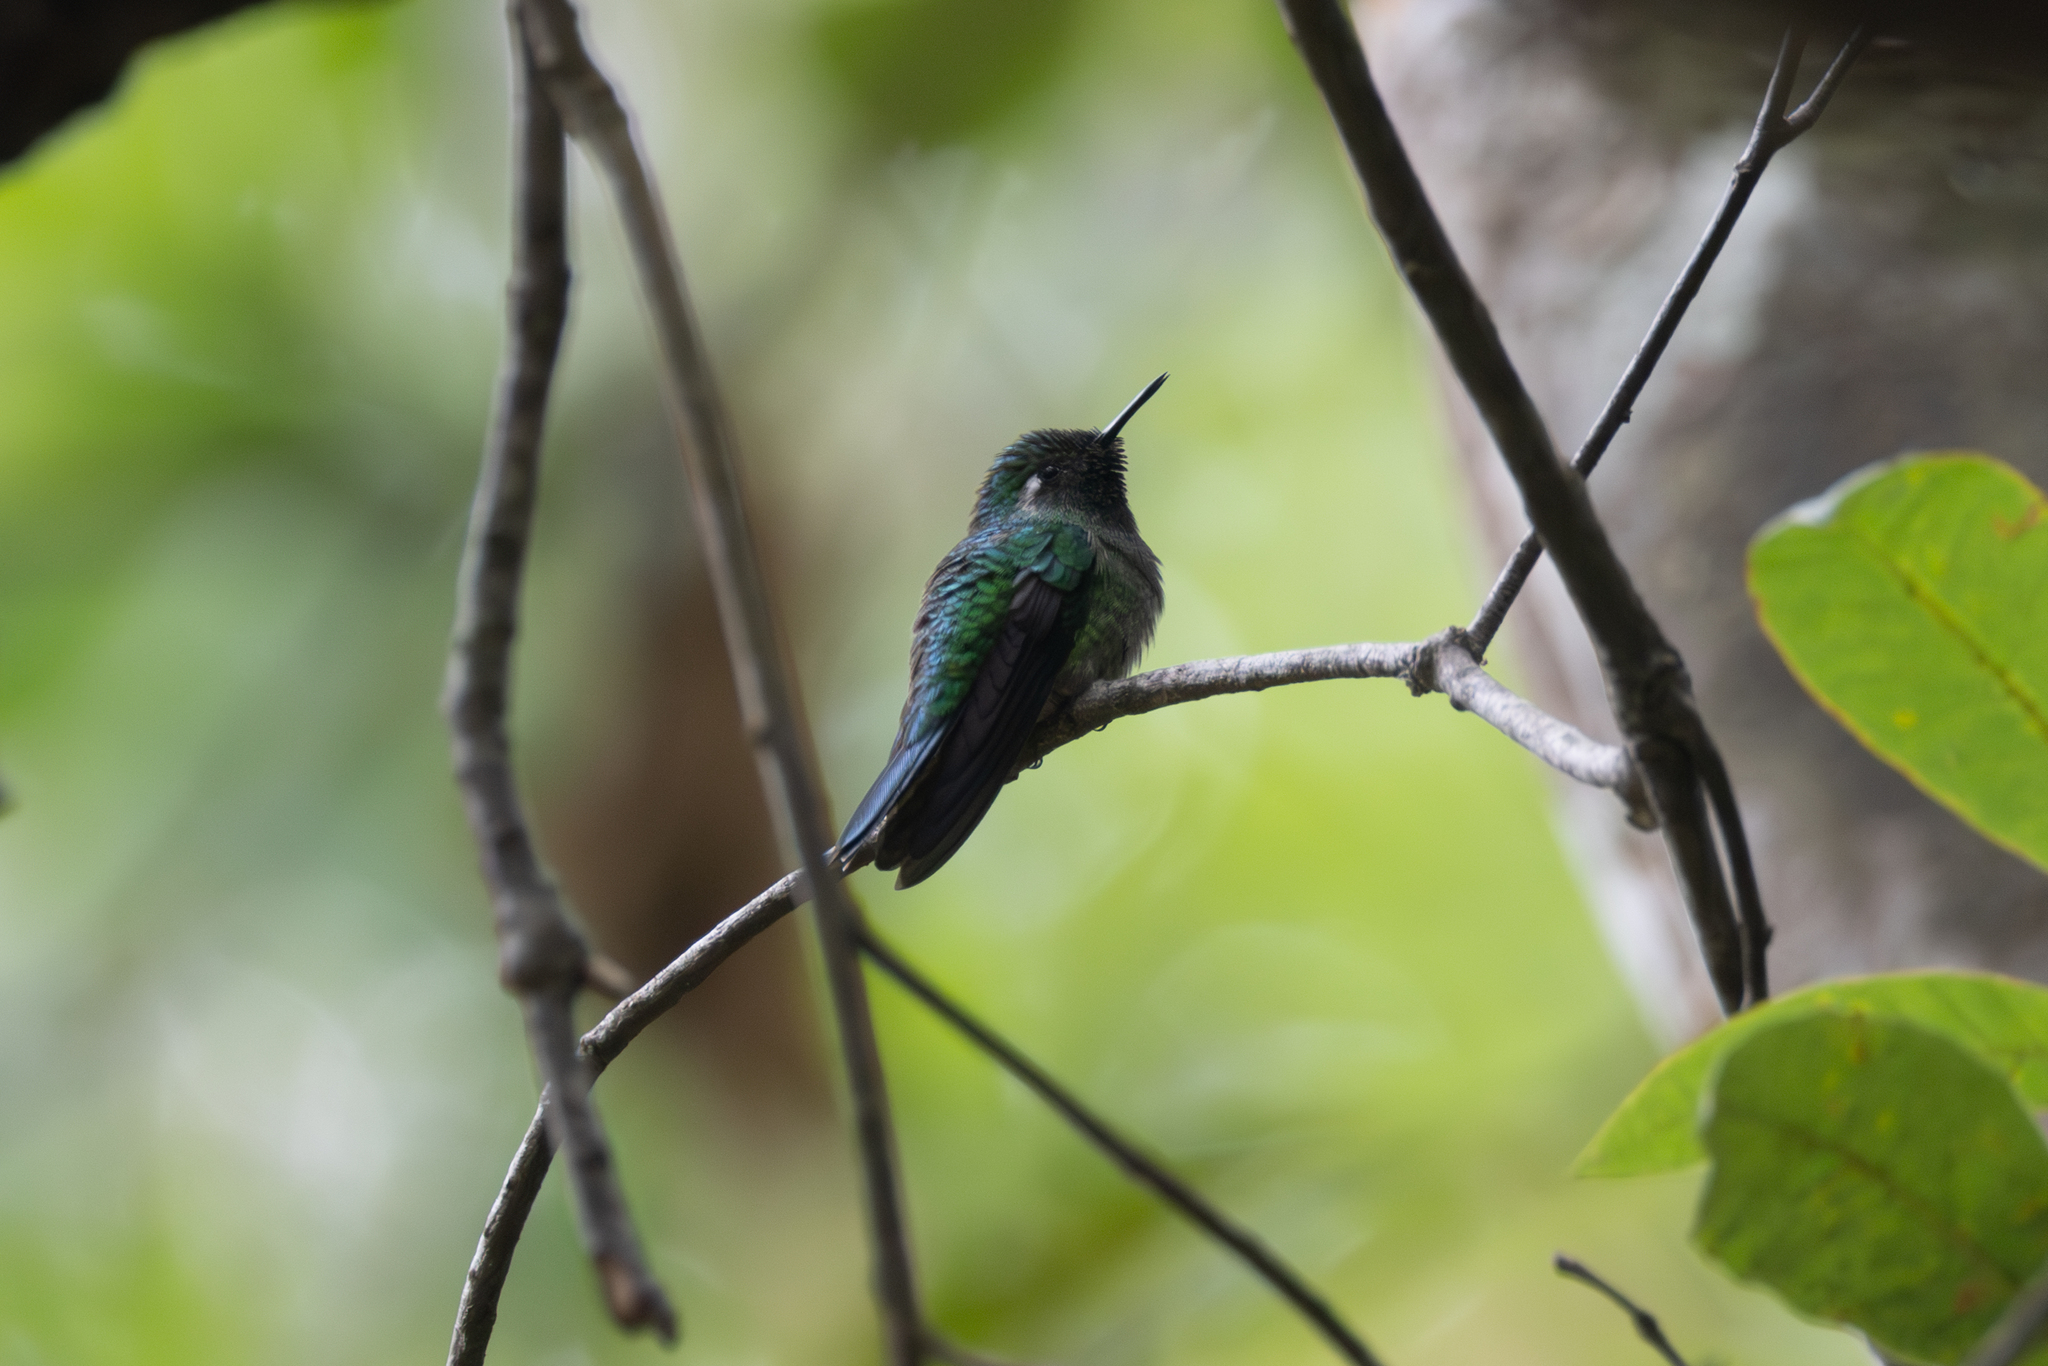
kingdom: Animalia
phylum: Chordata
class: Aves
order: Apodiformes
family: Trochilidae
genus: Abeillia
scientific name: Abeillia abeillei
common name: Emerald-chinned hummingbird
